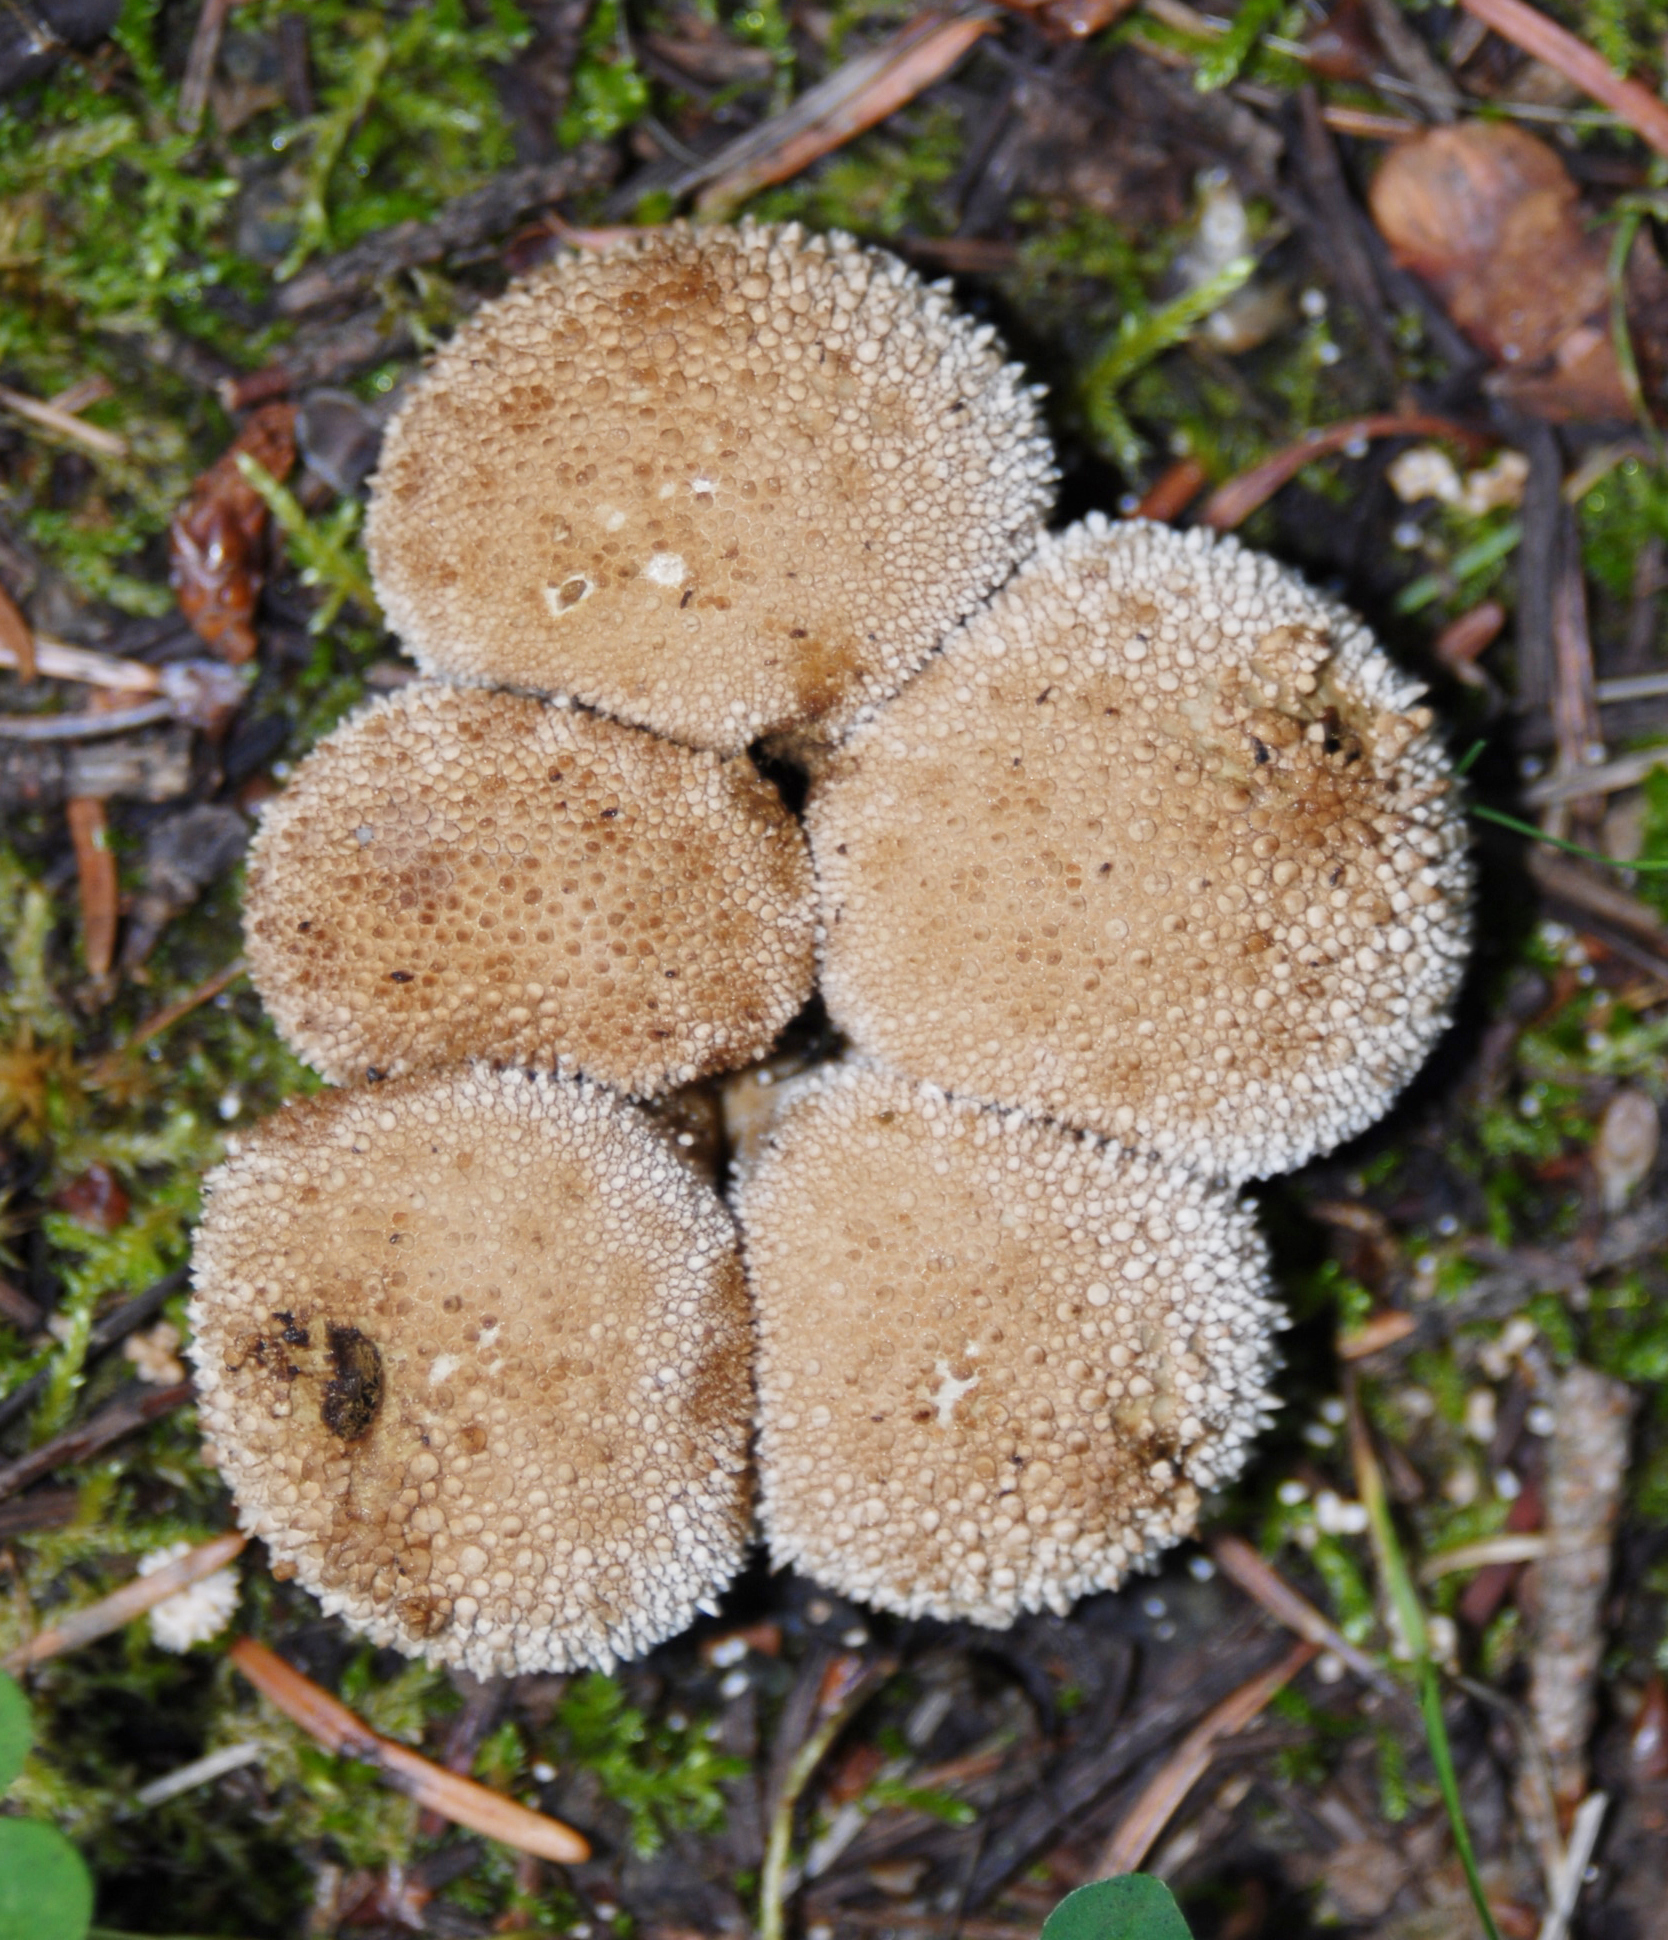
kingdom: Fungi
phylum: Basidiomycota
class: Agaricomycetes
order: Agaricales
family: Lycoperdaceae
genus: Lycoperdon
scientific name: Lycoperdon perlatum
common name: Common puffball
